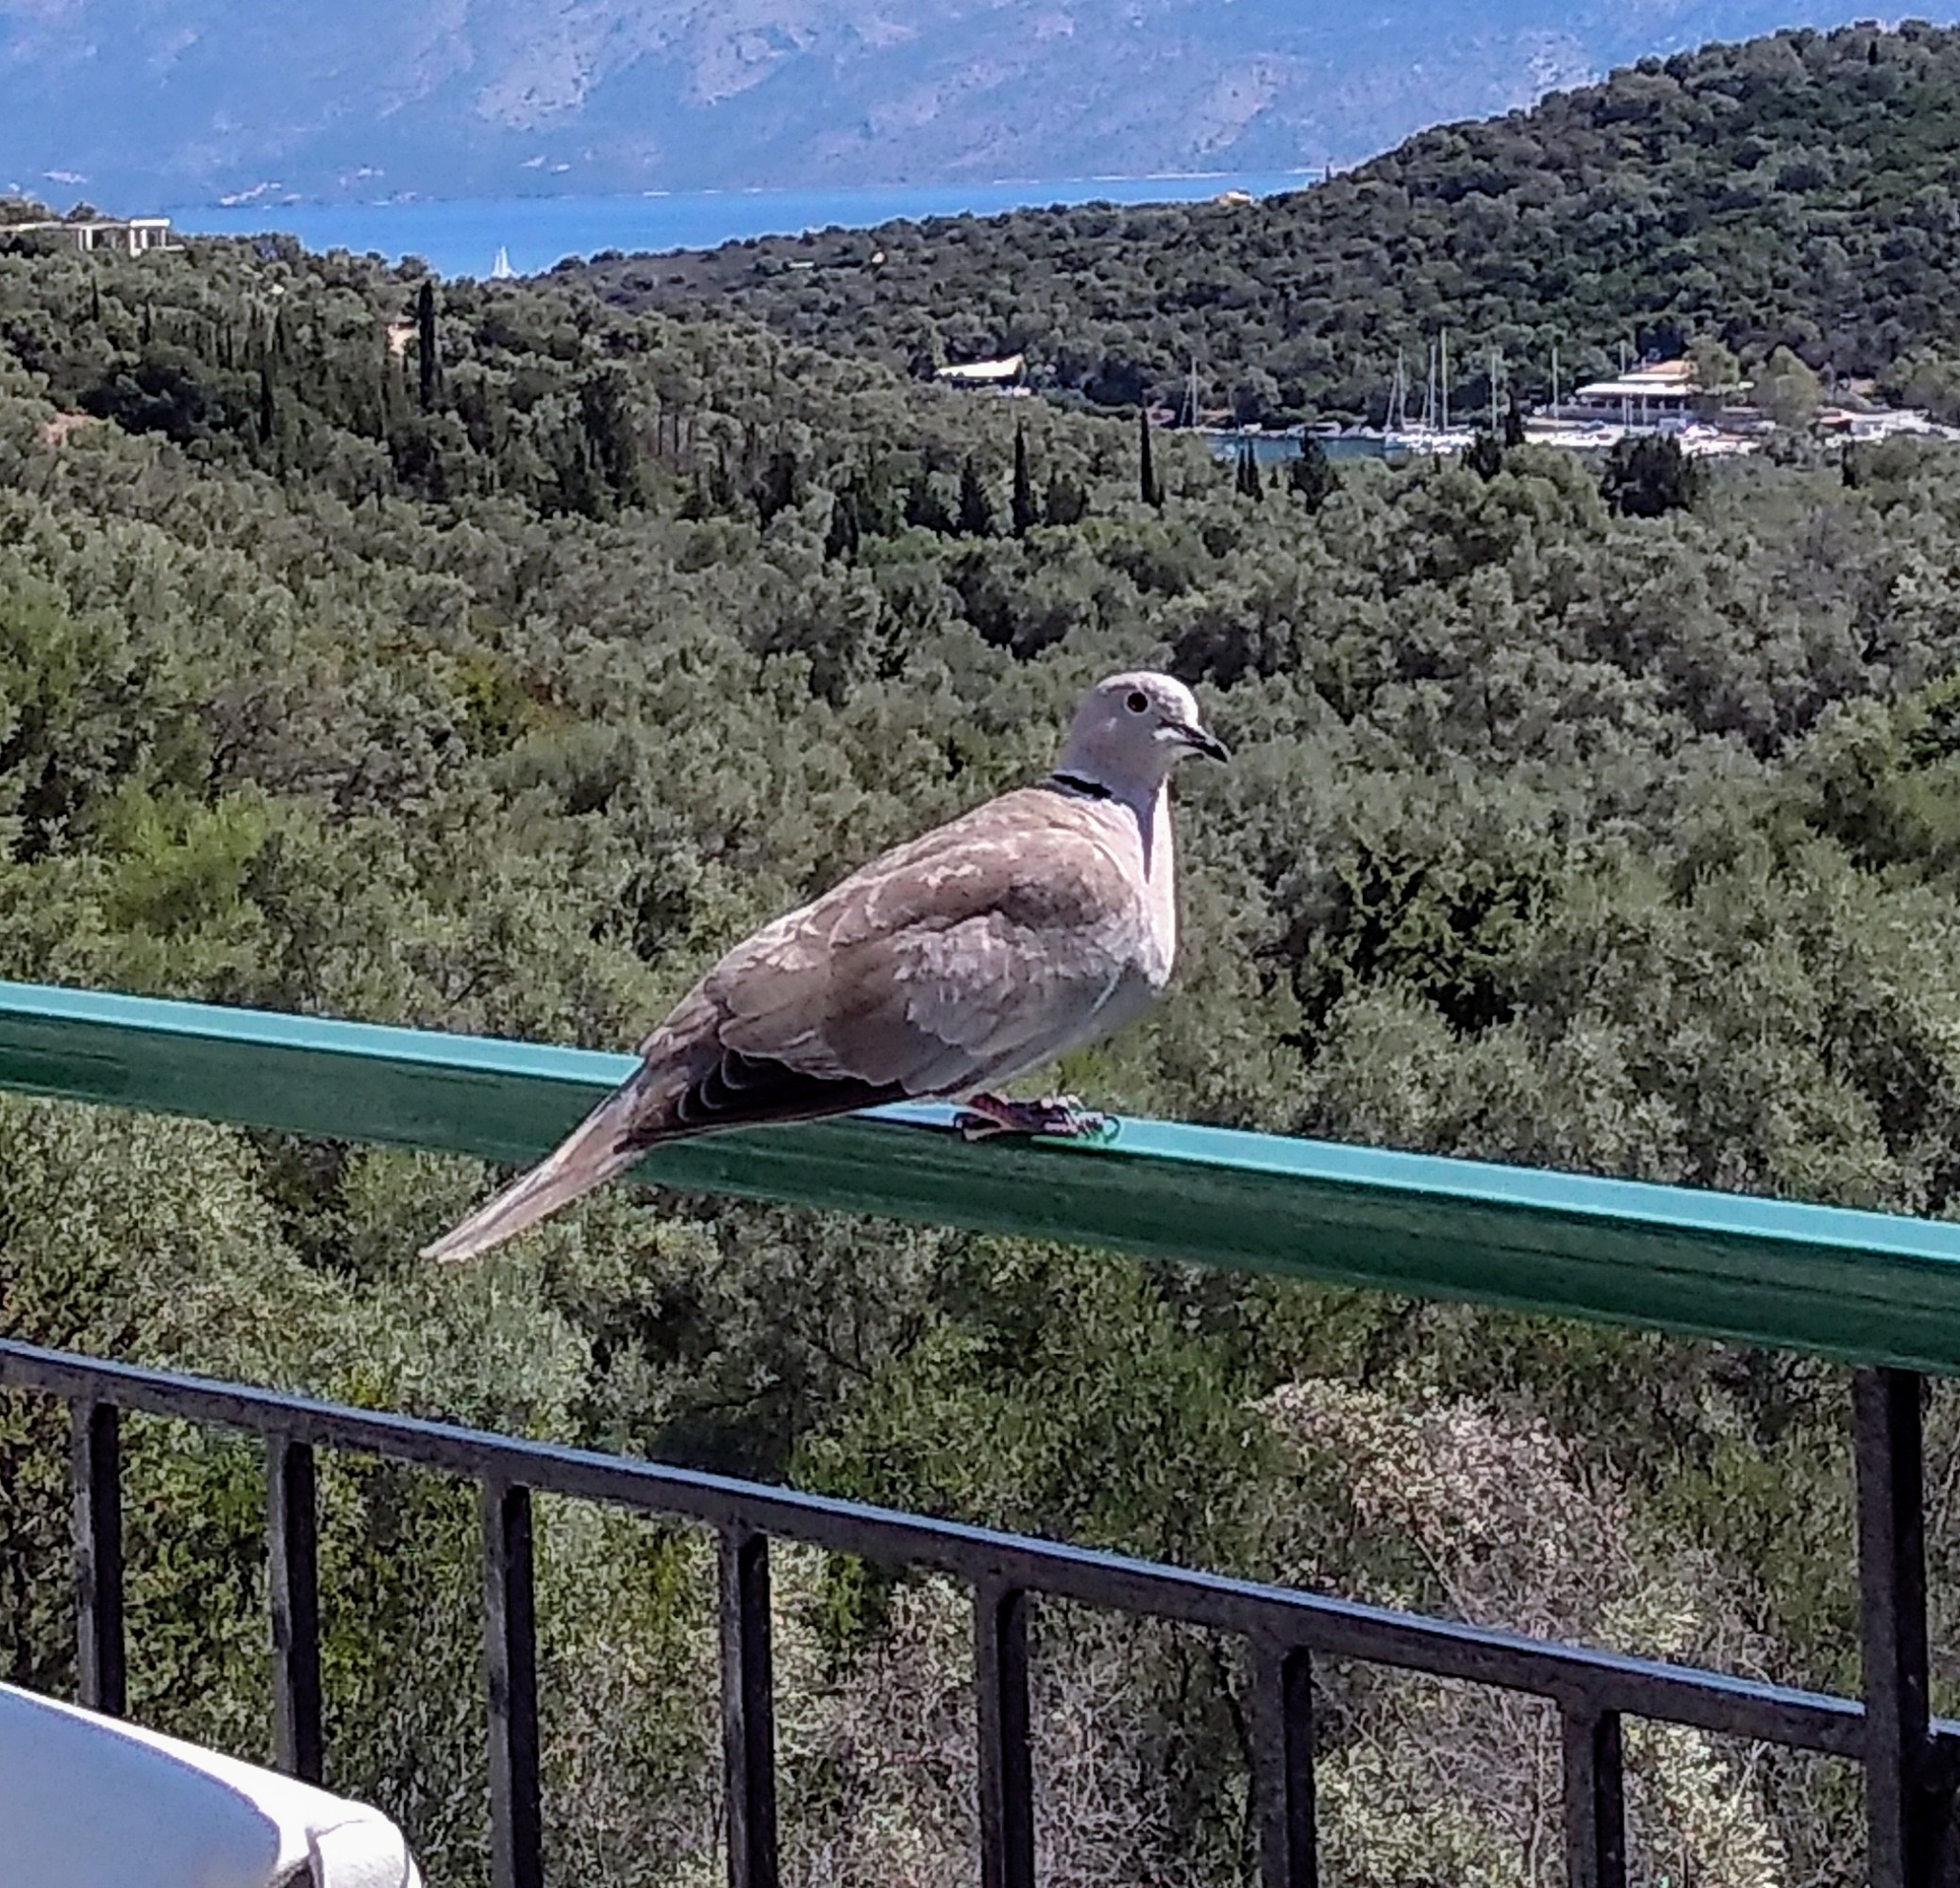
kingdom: Animalia
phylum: Chordata
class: Aves
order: Columbiformes
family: Columbidae
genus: Streptopelia
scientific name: Streptopelia decaocto
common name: Eurasian collared dove
